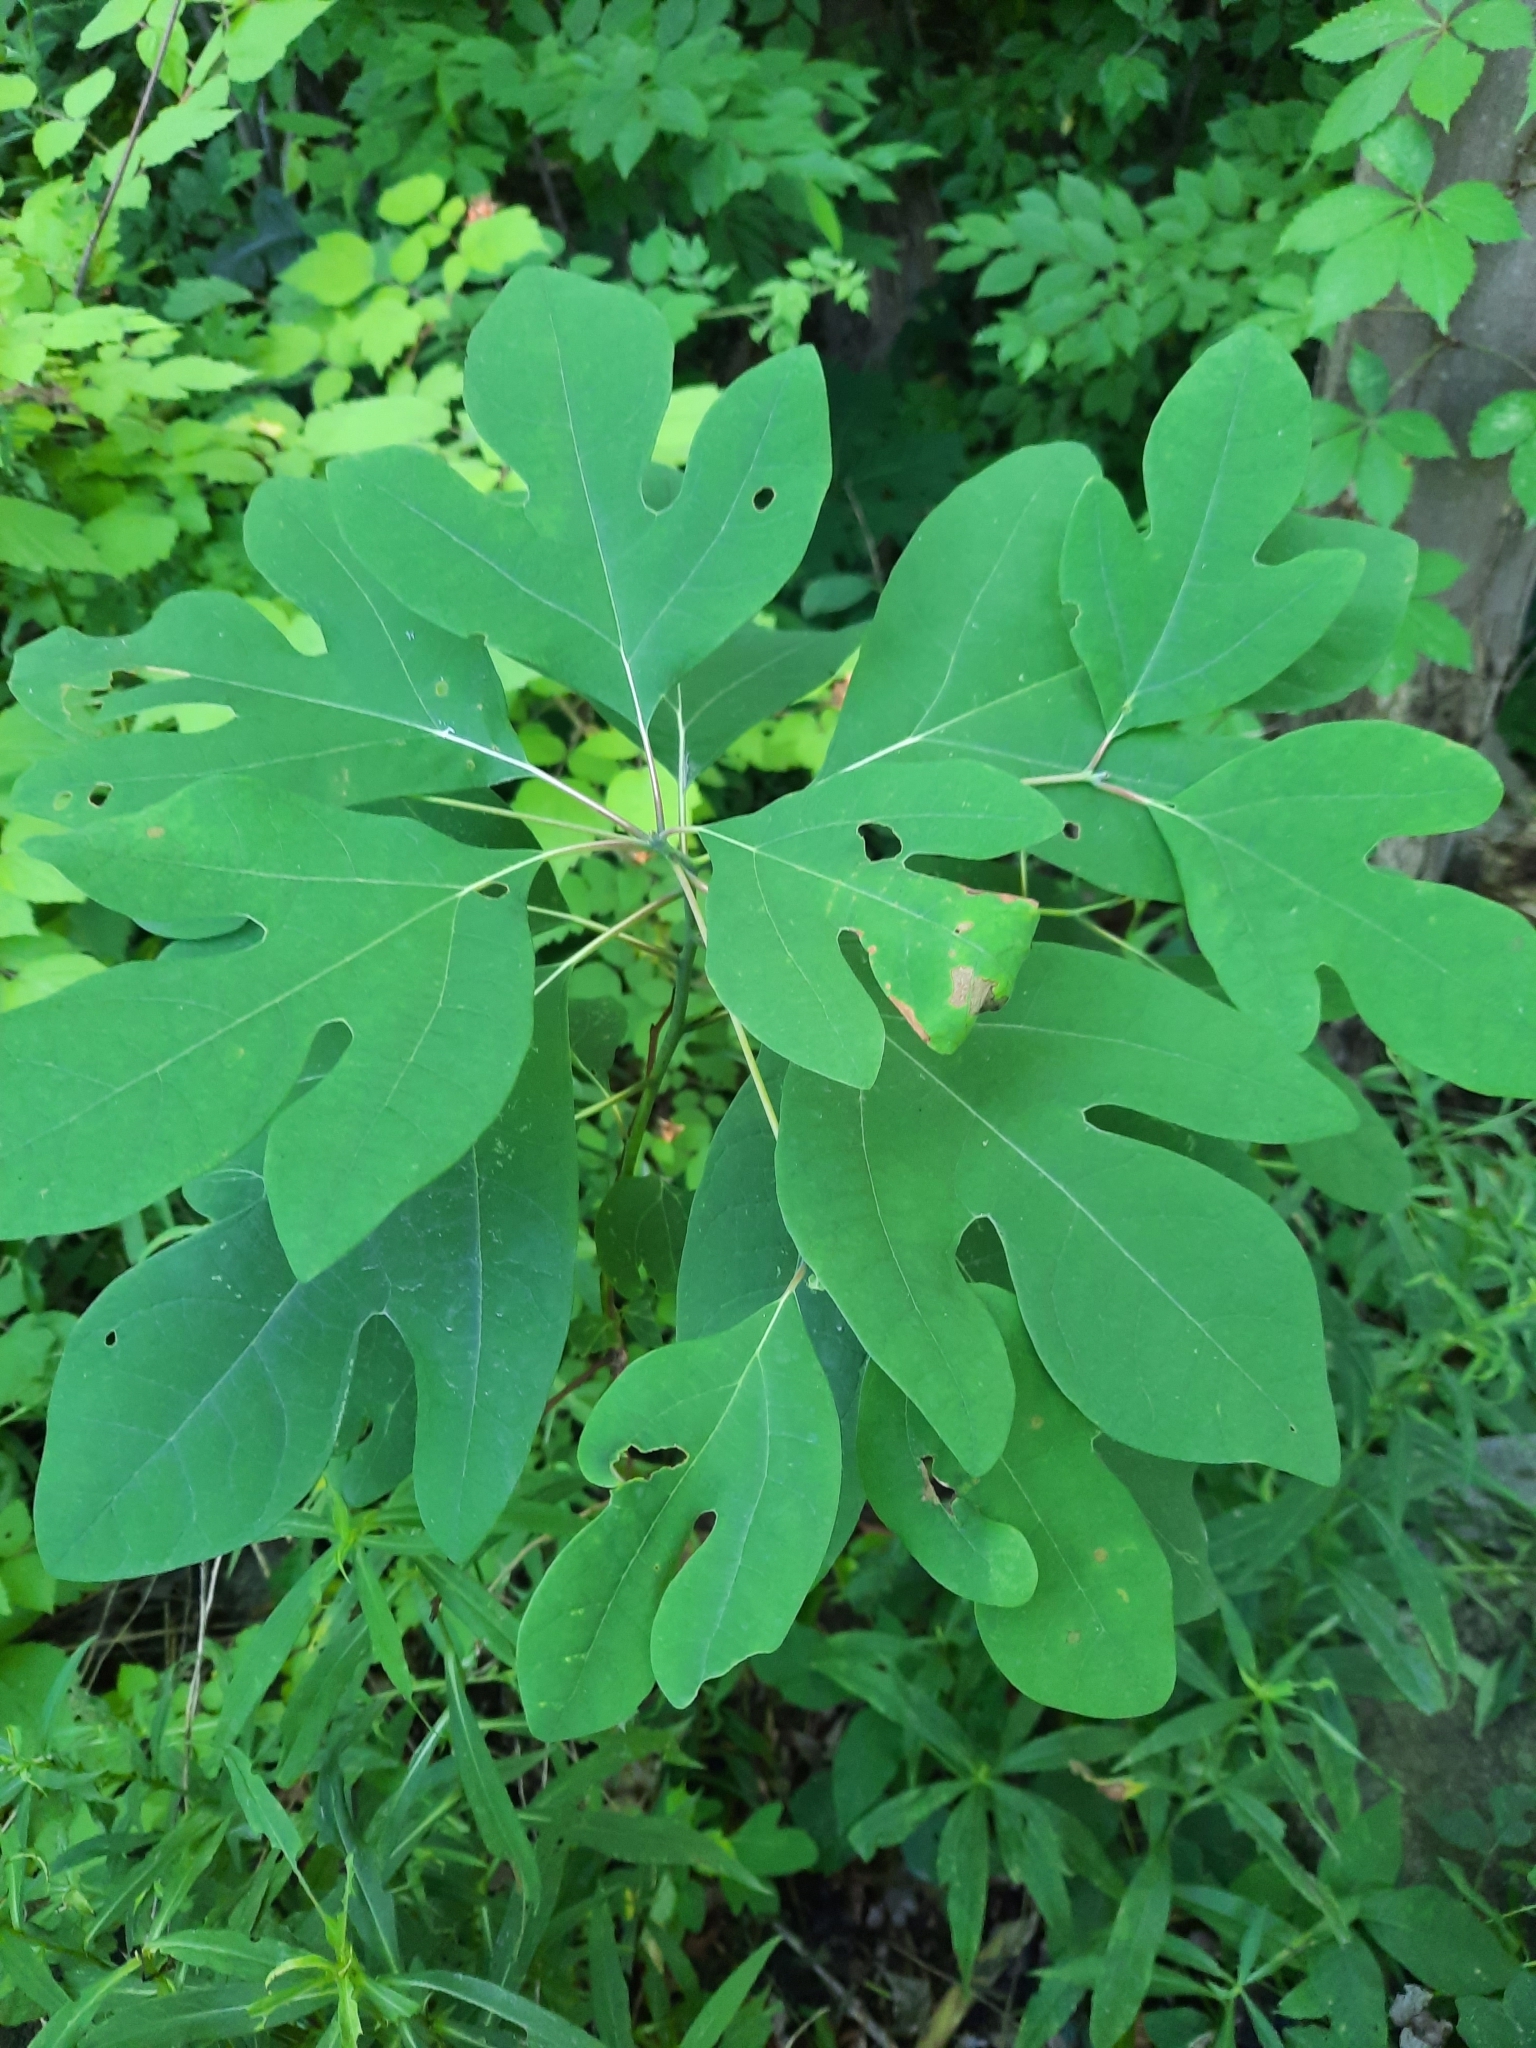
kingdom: Plantae
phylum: Tracheophyta
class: Magnoliopsida
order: Laurales
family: Lauraceae
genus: Sassafras
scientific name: Sassafras albidum
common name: Sassafras
